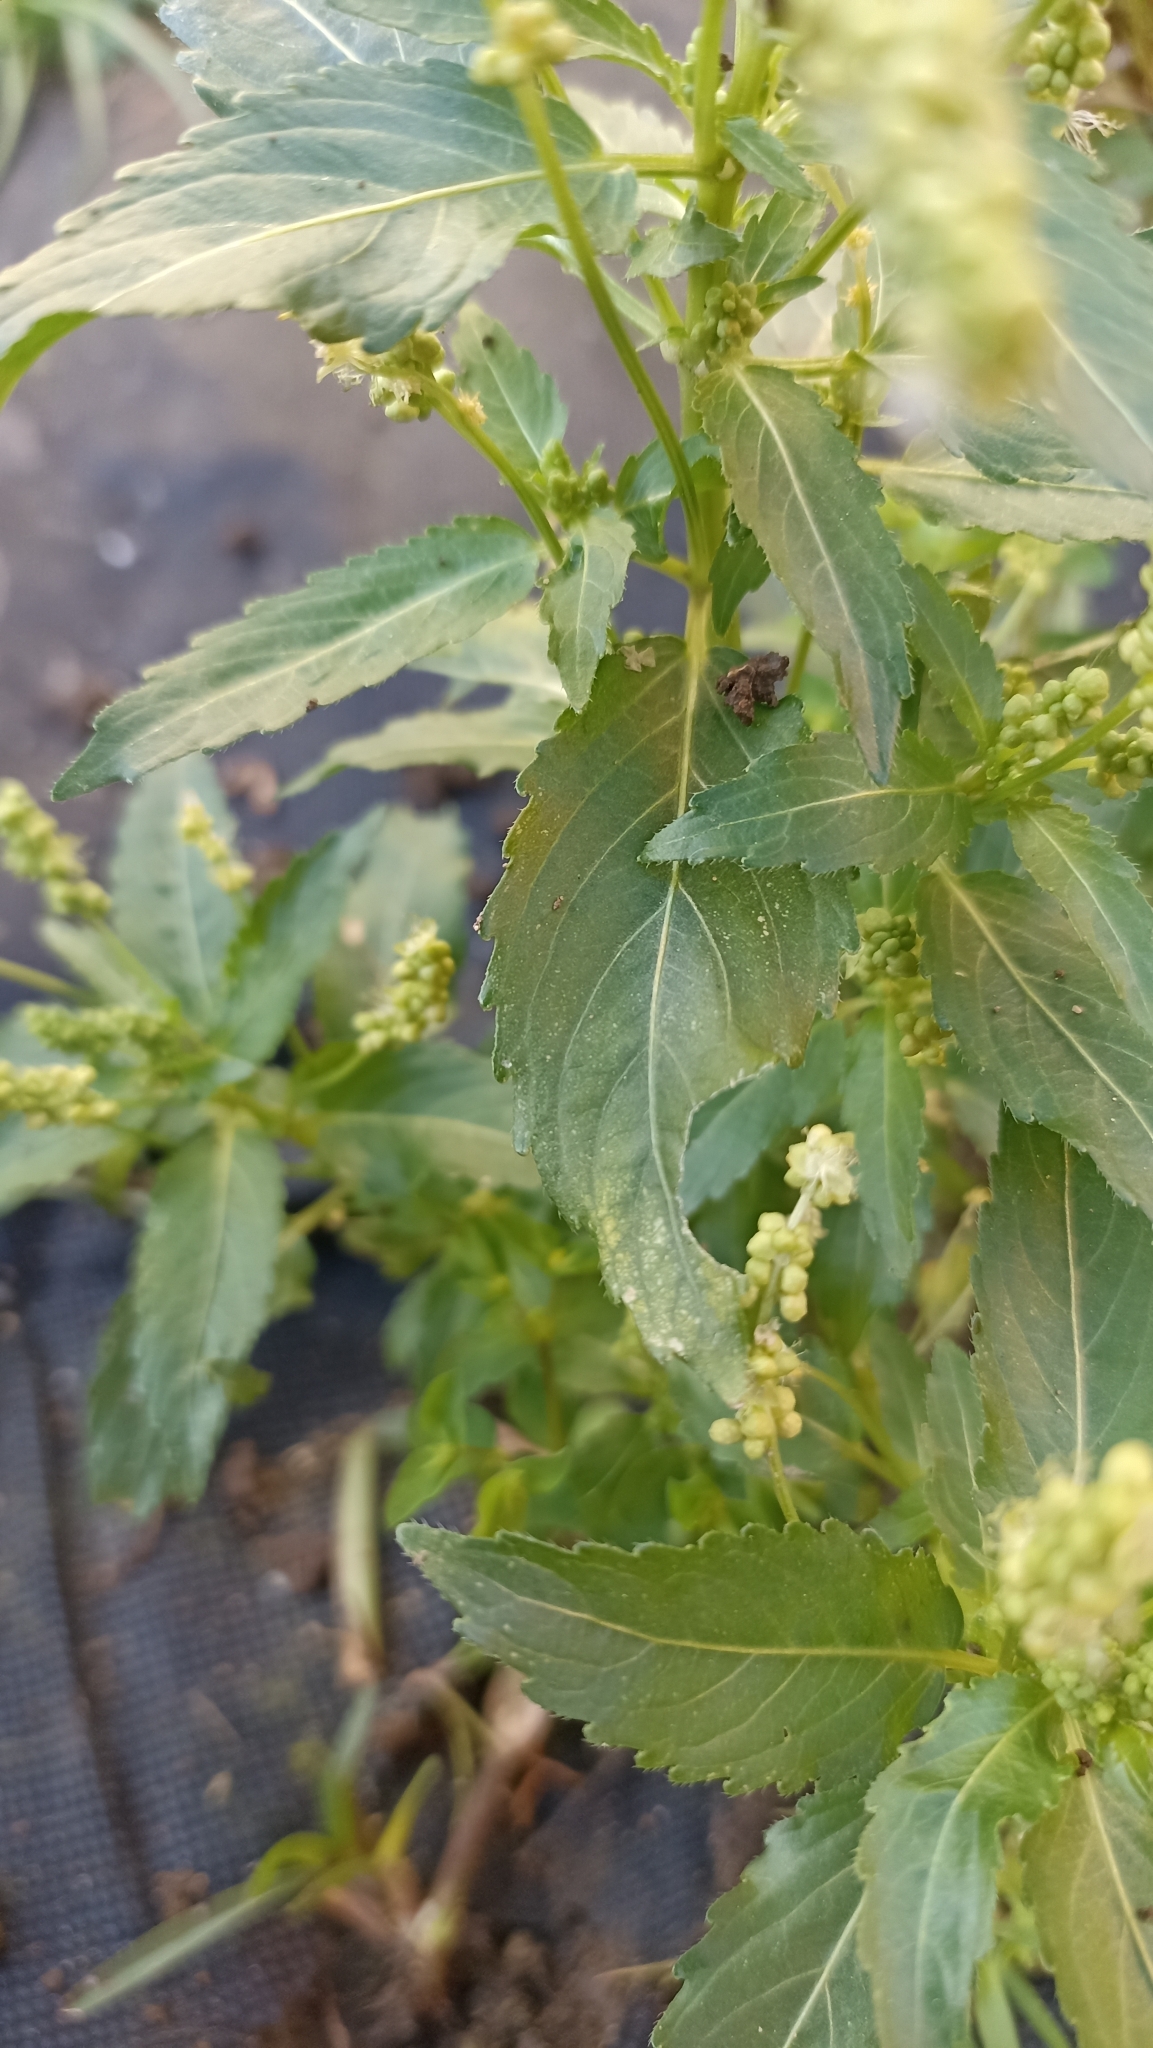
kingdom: Plantae
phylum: Tracheophyta
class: Magnoliopsida
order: Malpighiales
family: Euphorbiaceae
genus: Mercurialis
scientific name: Mercurialis annua
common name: Annual mercury
